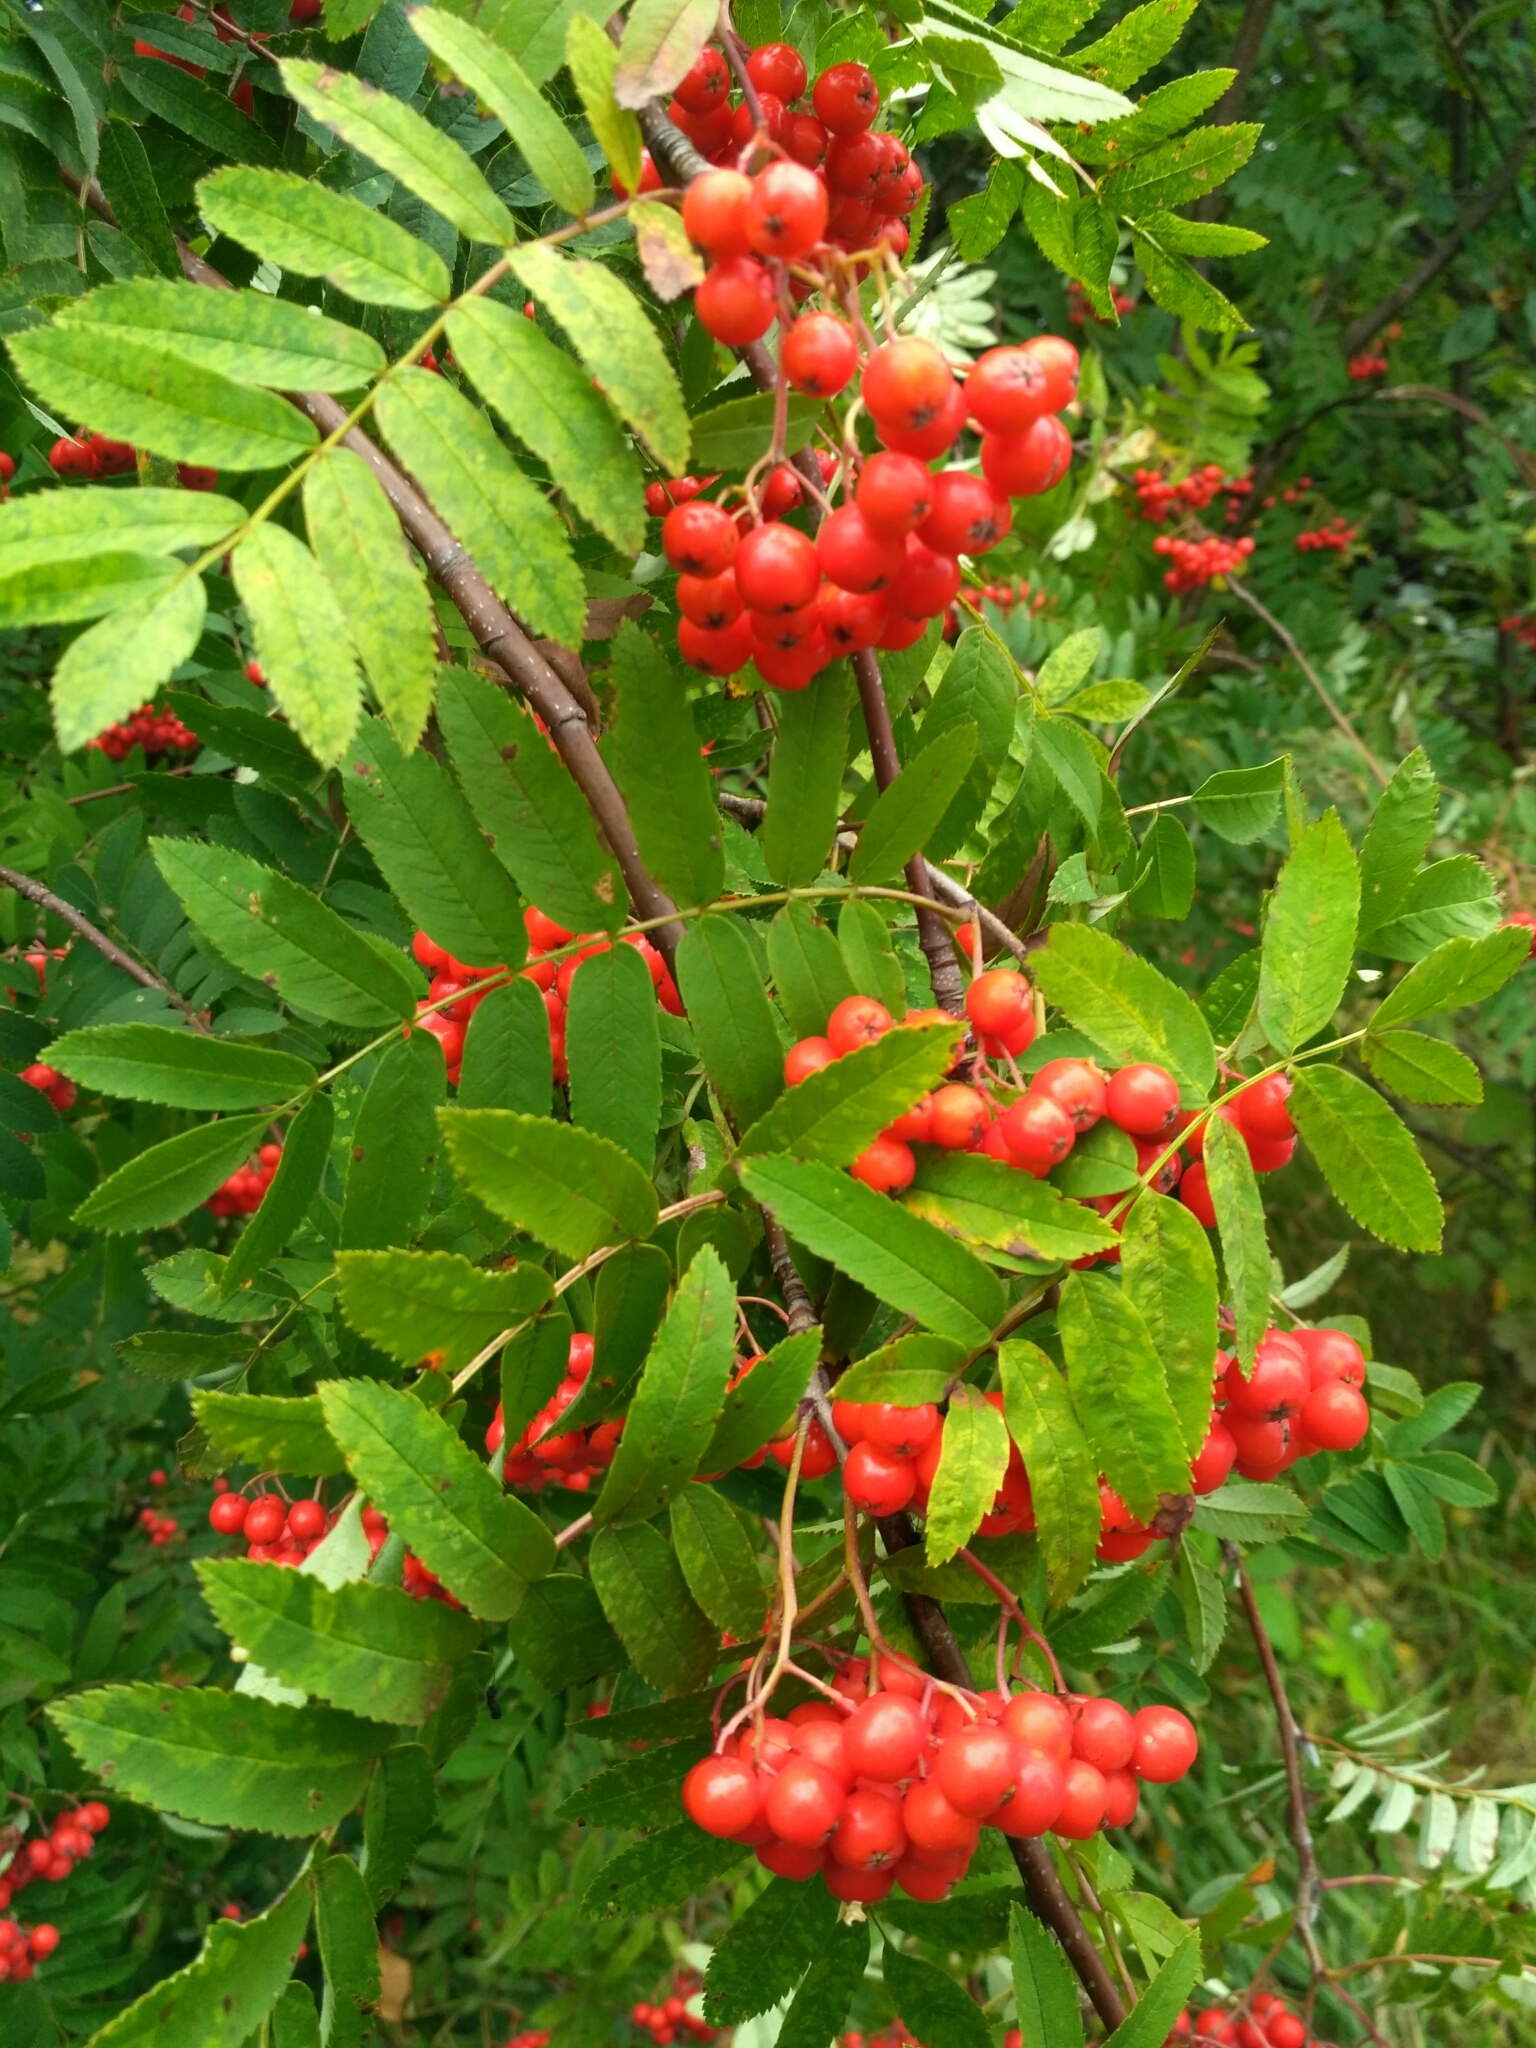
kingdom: Plantae
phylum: Tracheophyta
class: Magnoliopsida
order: Rosales
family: Rosaceae
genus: Sorbus
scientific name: Sorbus aucuparia
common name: Rowan
